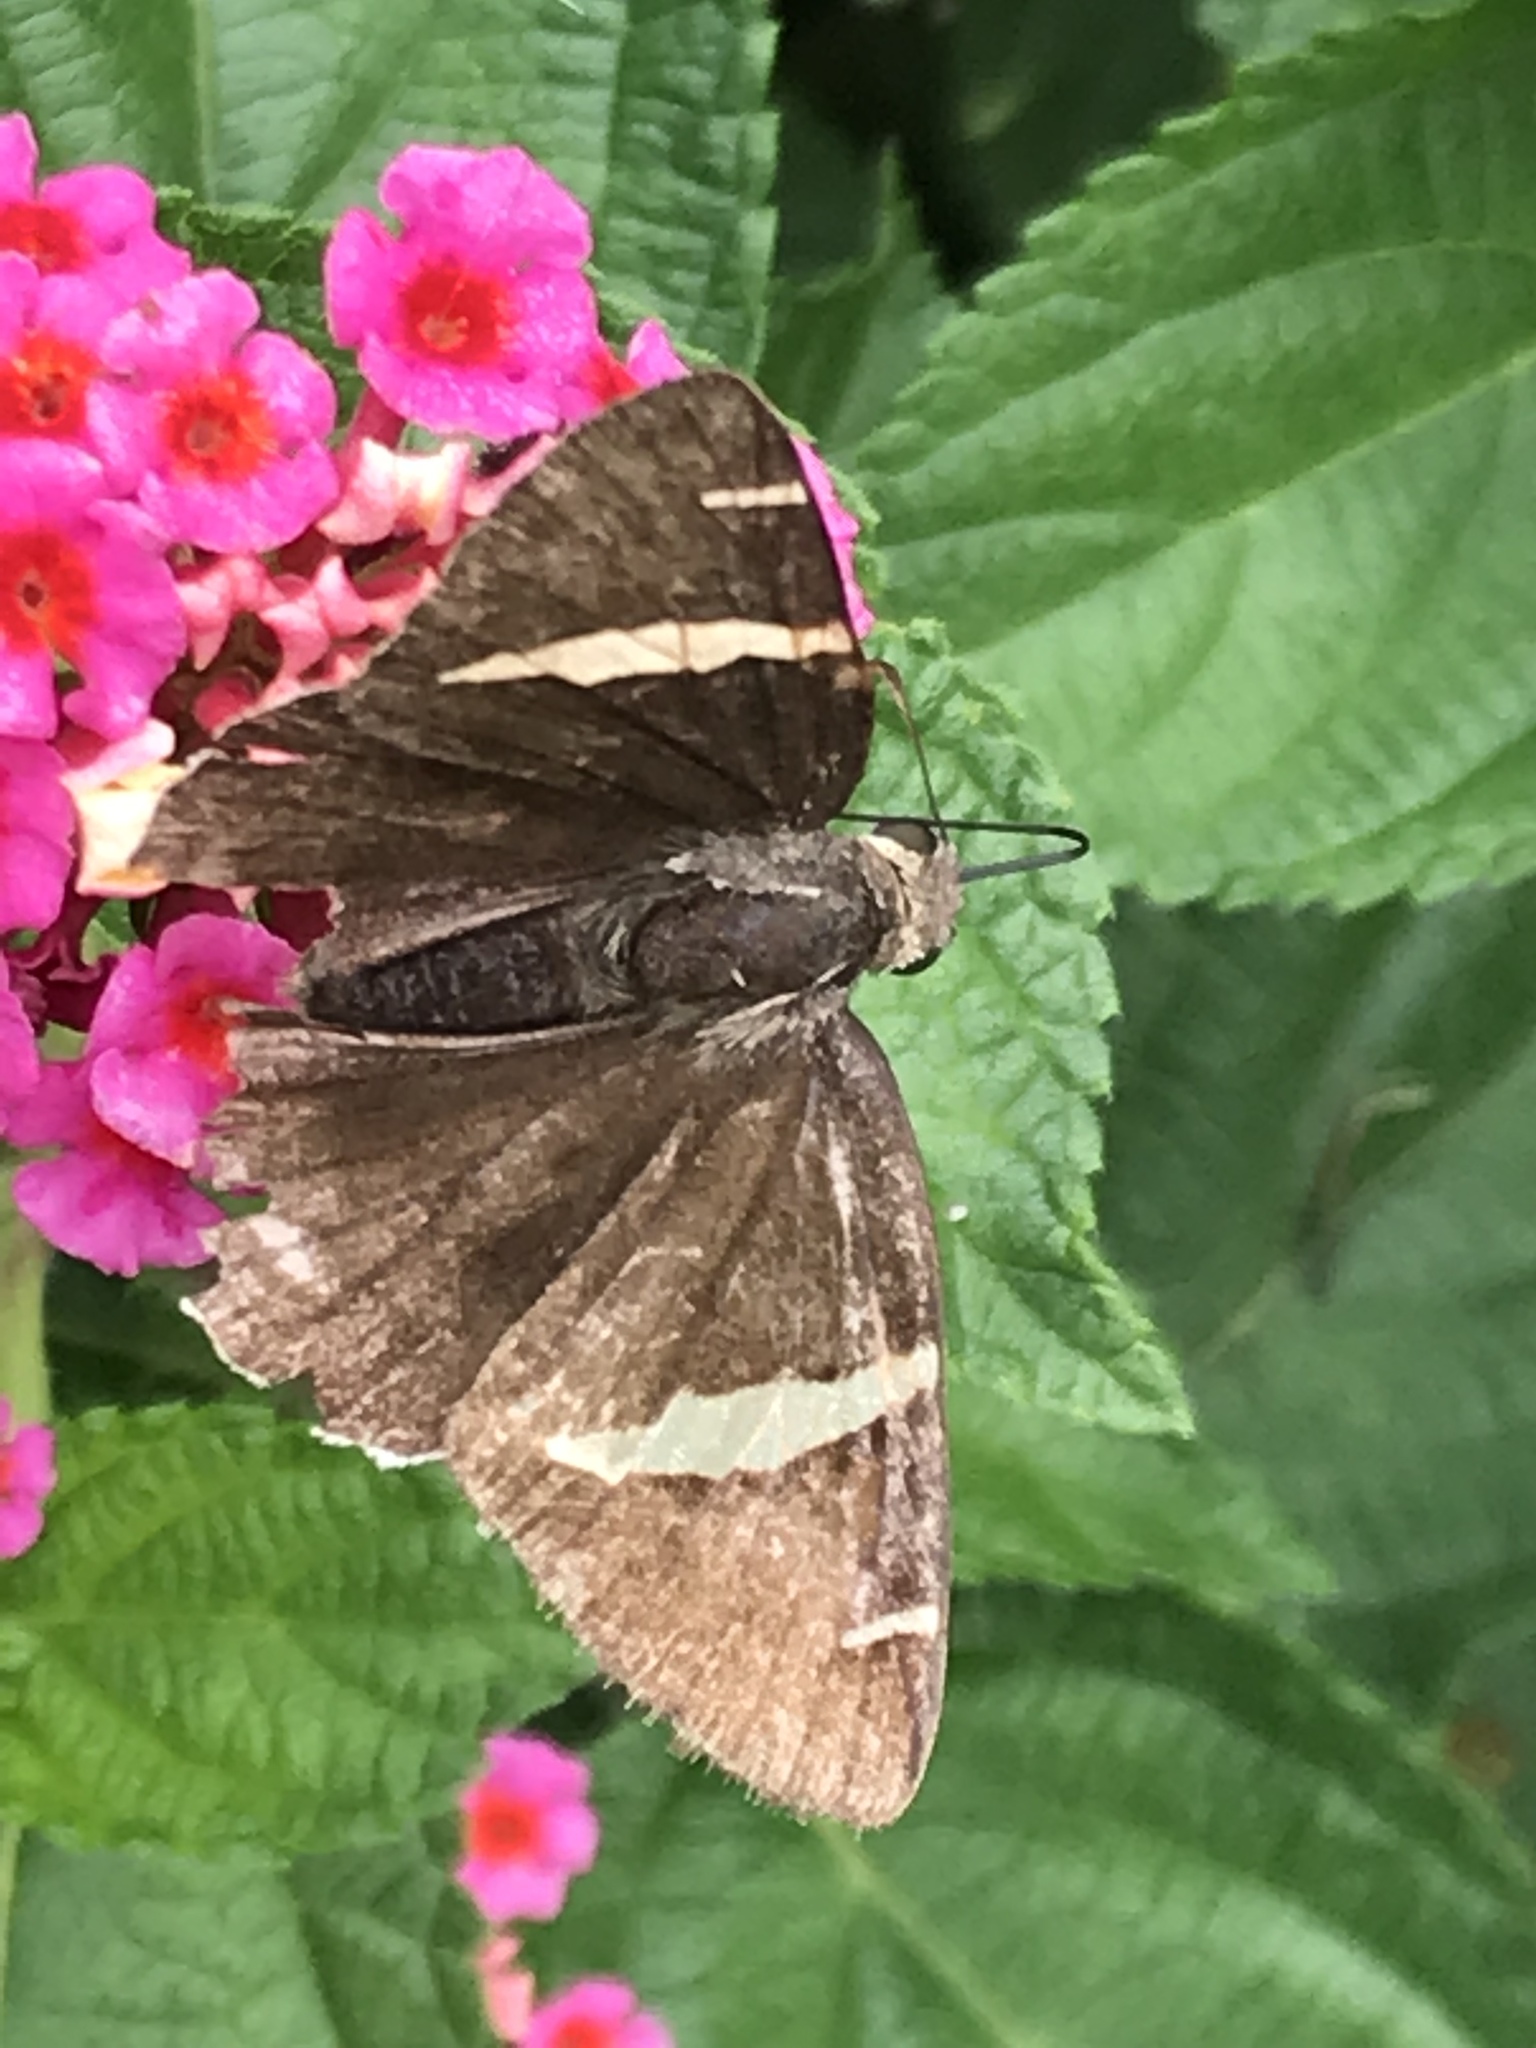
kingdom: Animalia
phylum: Arthropoda
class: Arachnida
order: Scorpiones
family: Bothriuridae
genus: Telegonus
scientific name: Telegonus cellus
